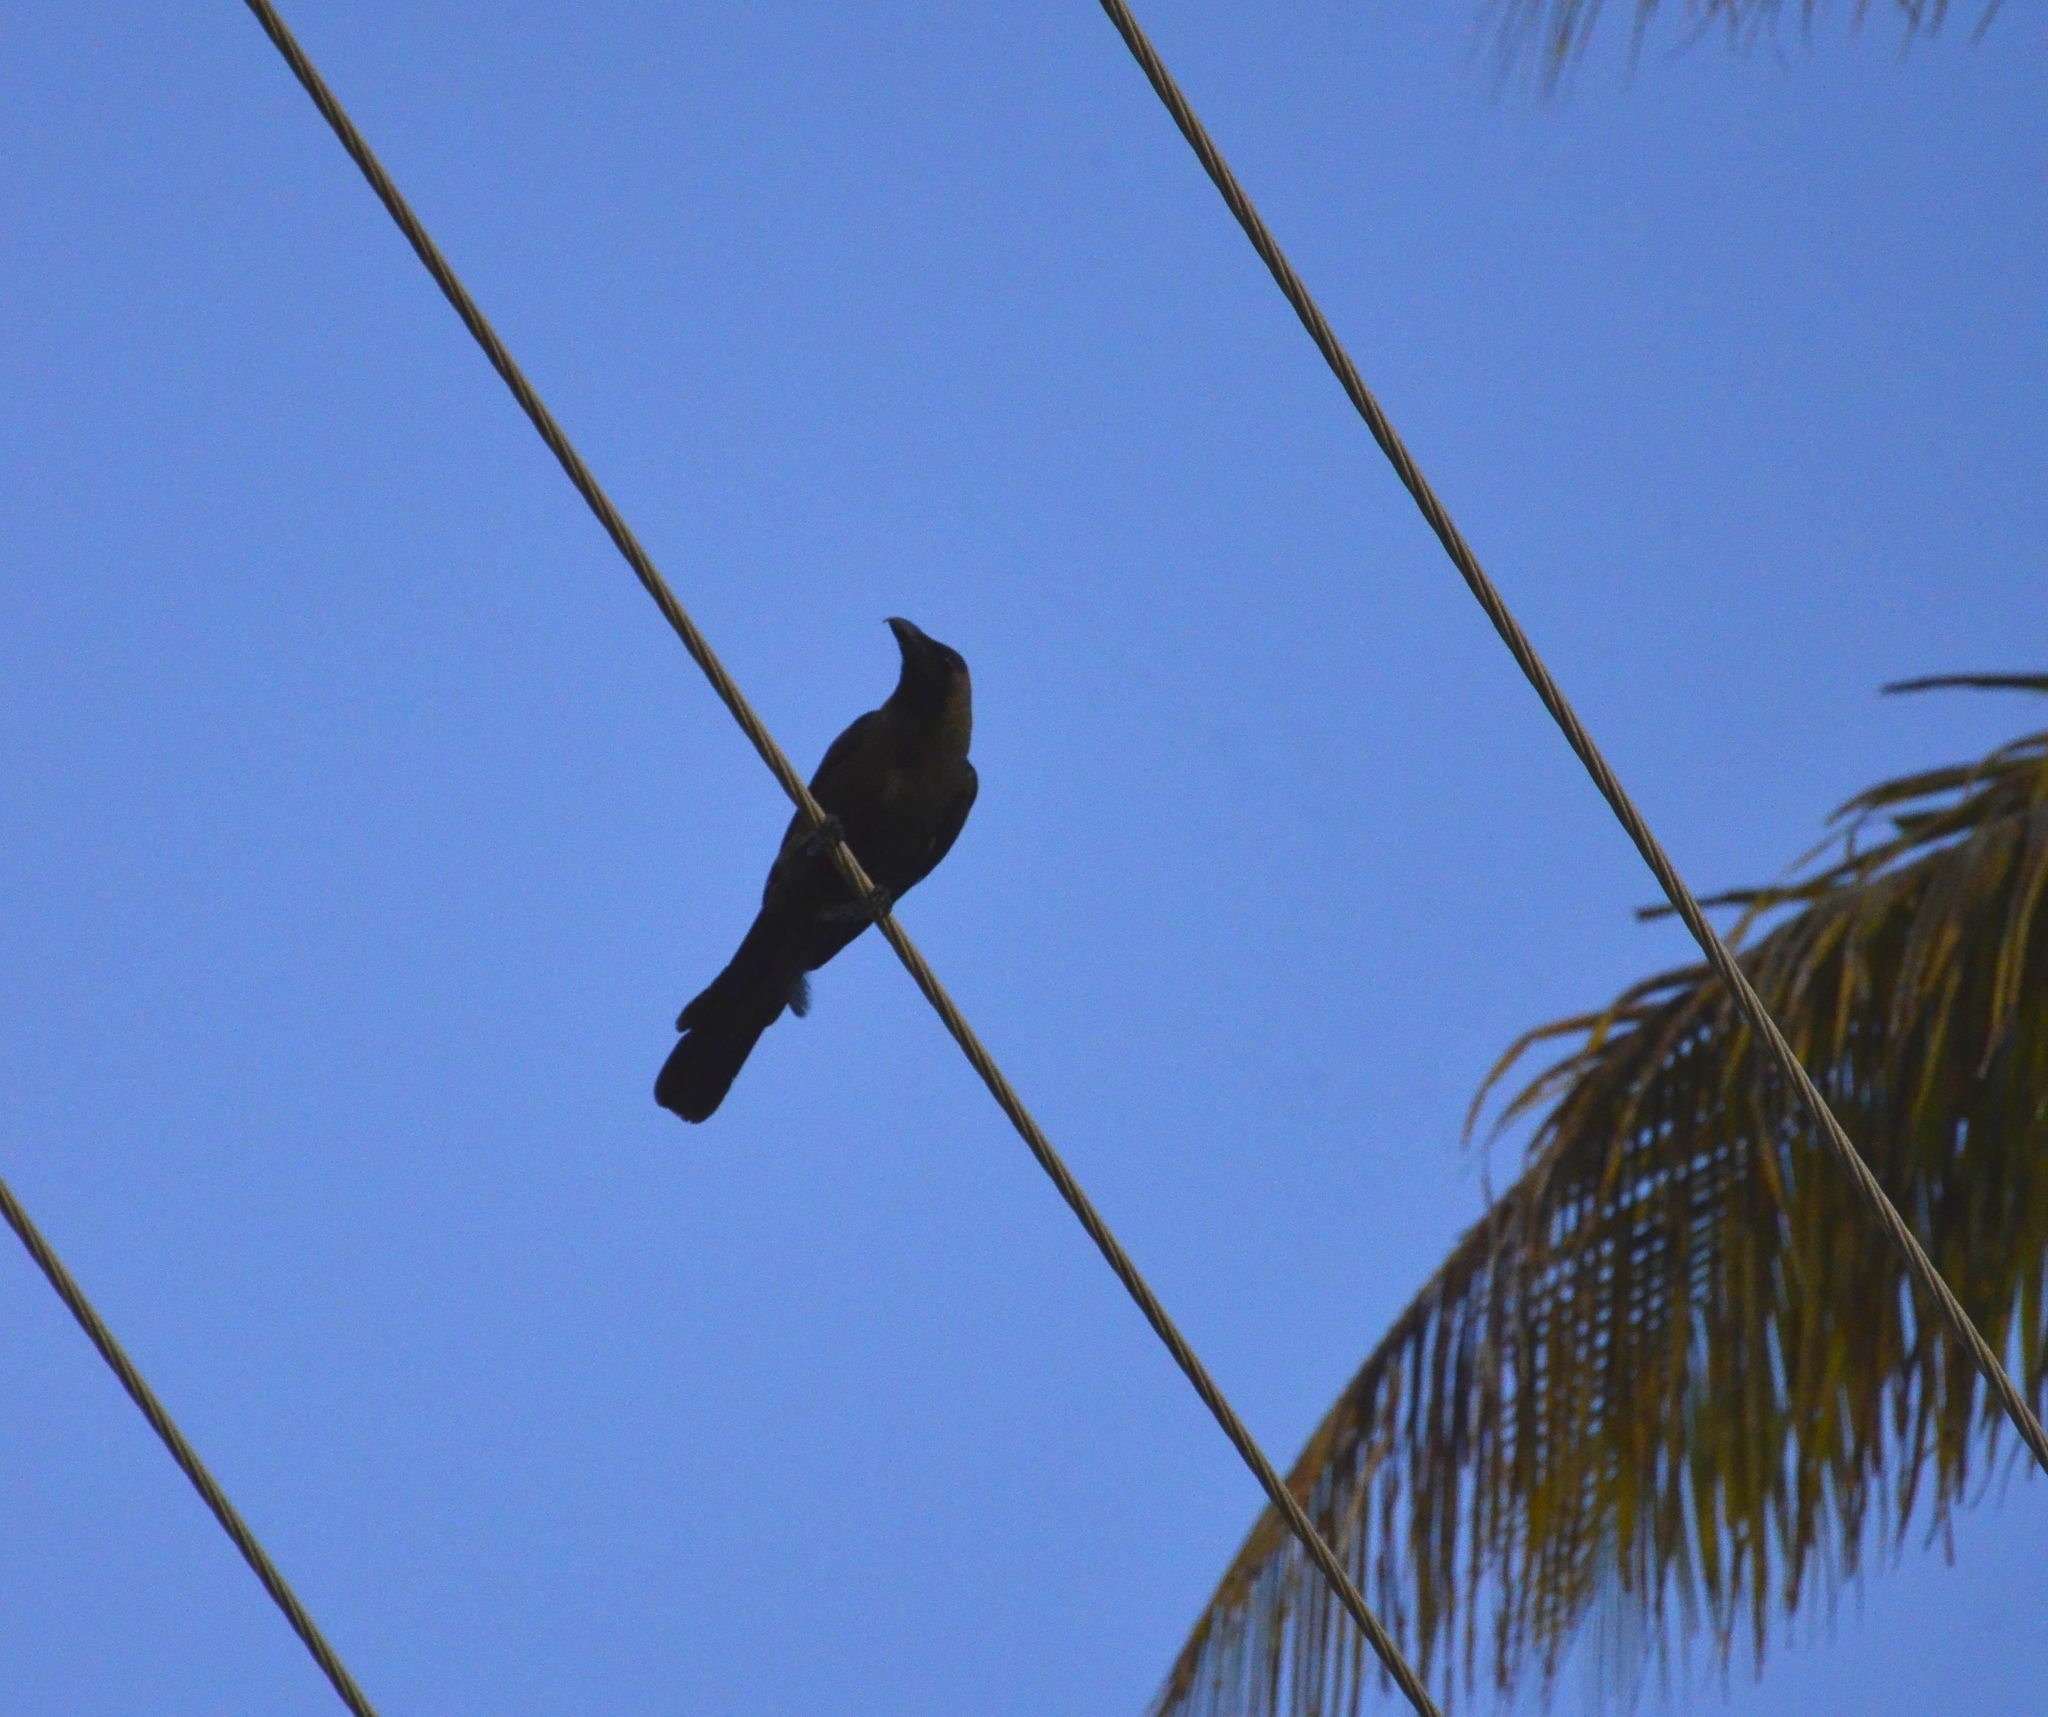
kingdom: Animalia
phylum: Chordata
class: Aves
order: Passeriformes
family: Corvidae
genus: Corvus
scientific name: Corvus splendens
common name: House crow
